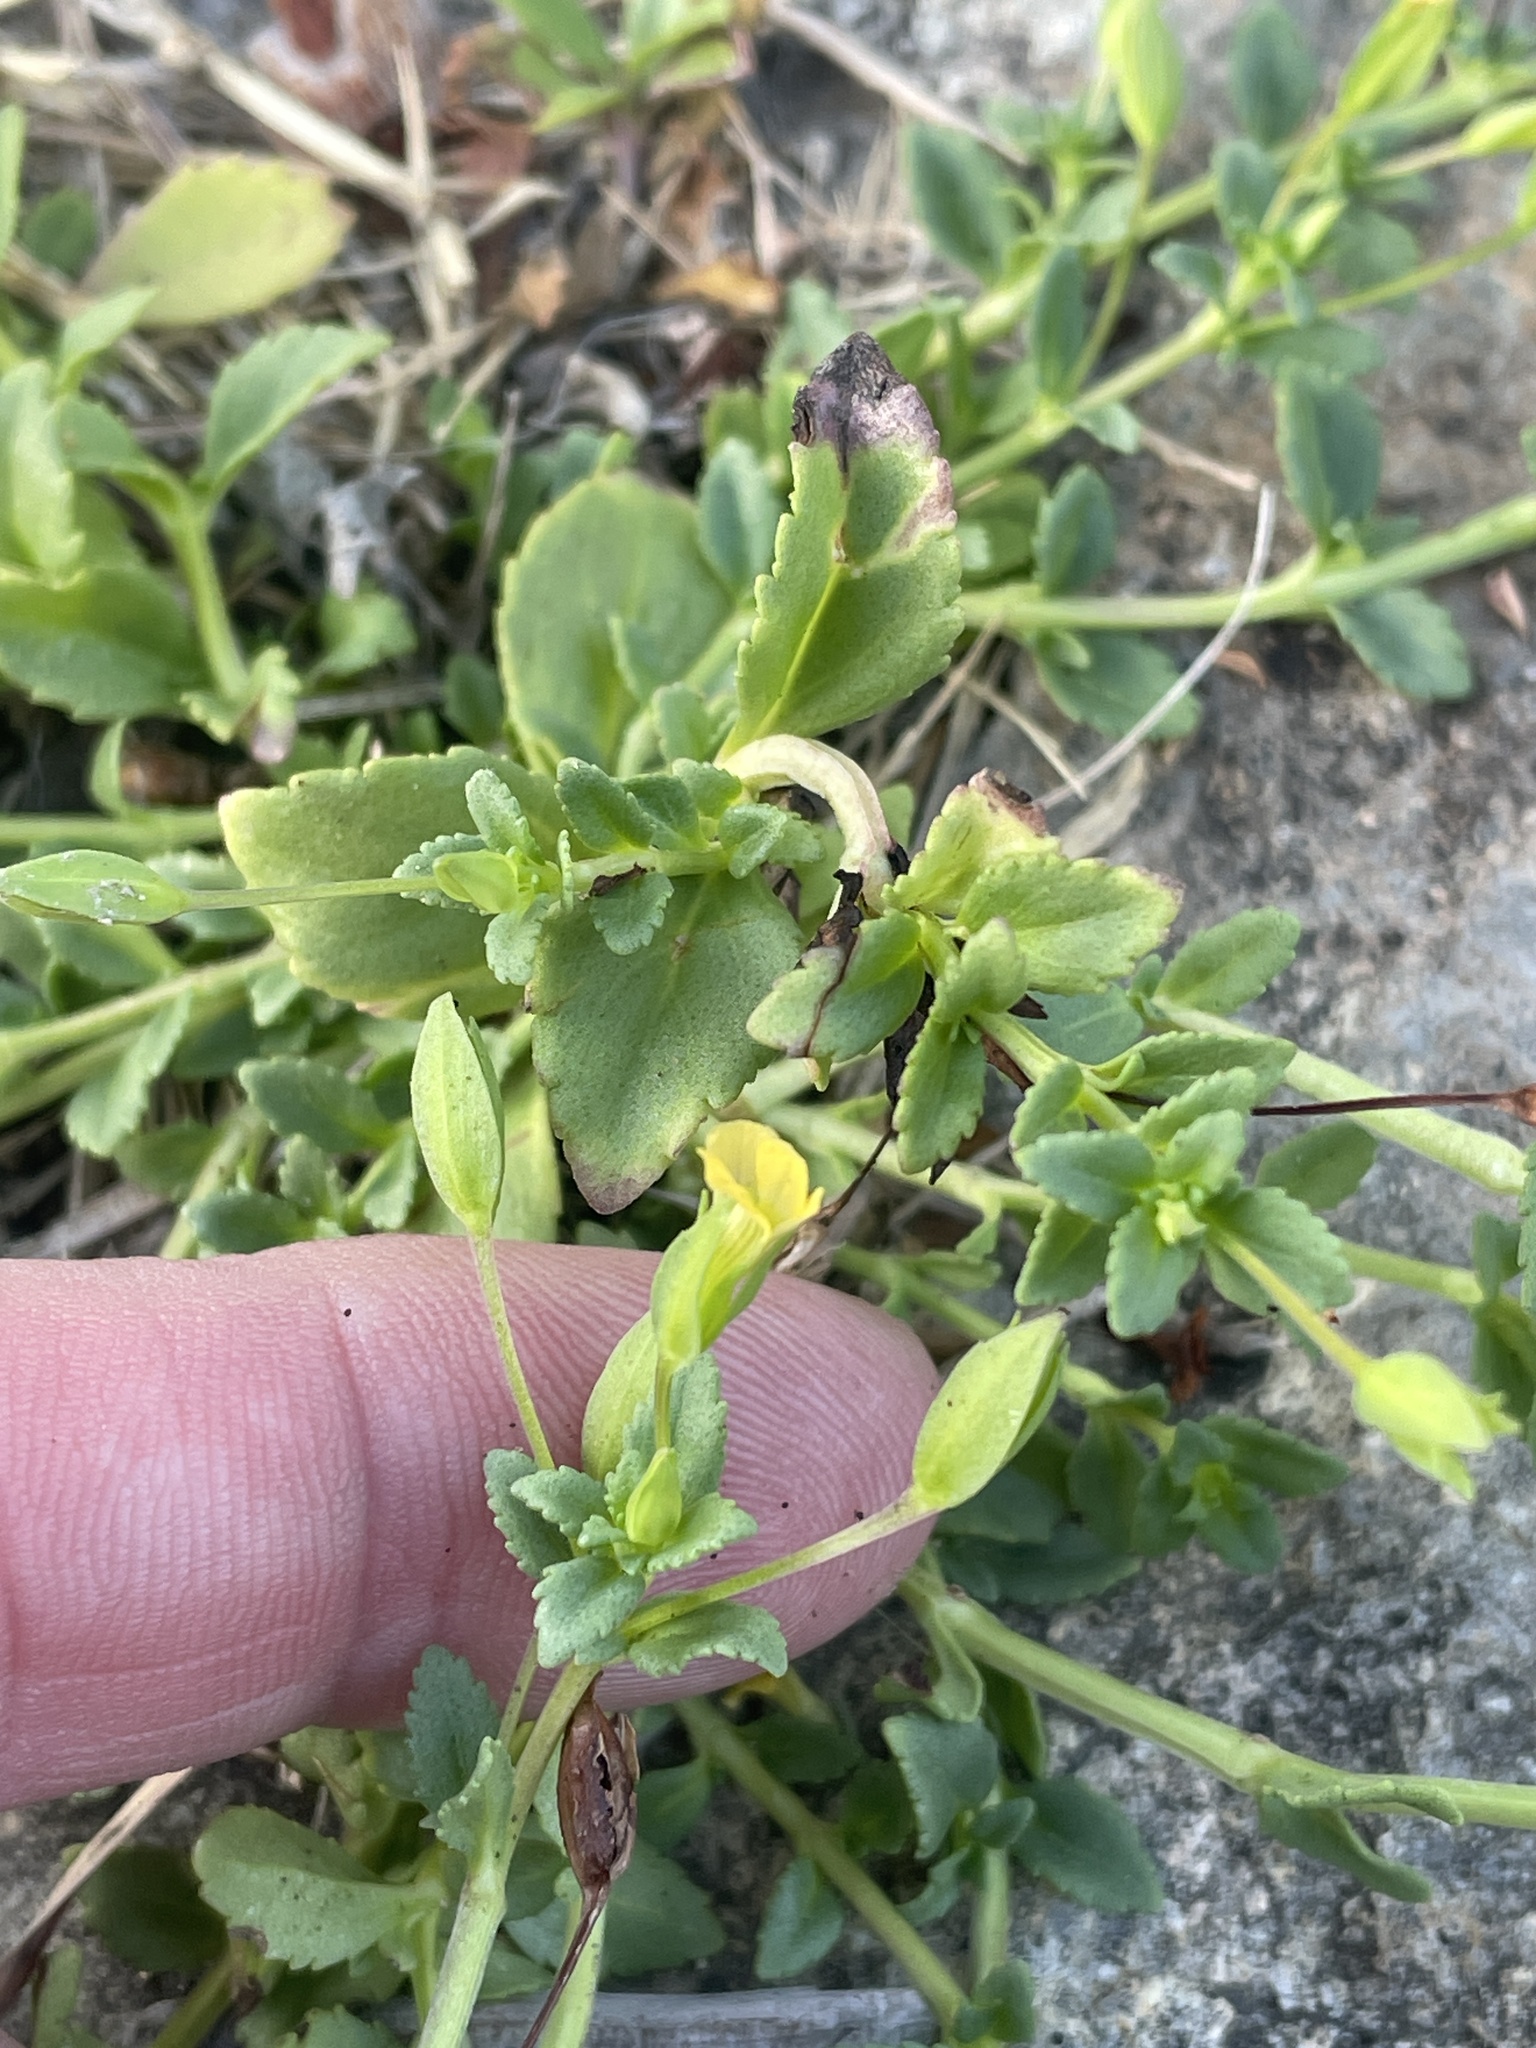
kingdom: Plantae
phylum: Tracheophyta
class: Magnoliopsida
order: Lamiales
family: Plantaginaceae
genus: Mecardonia
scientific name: Mecardonia procumbens
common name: Baby jump-up
